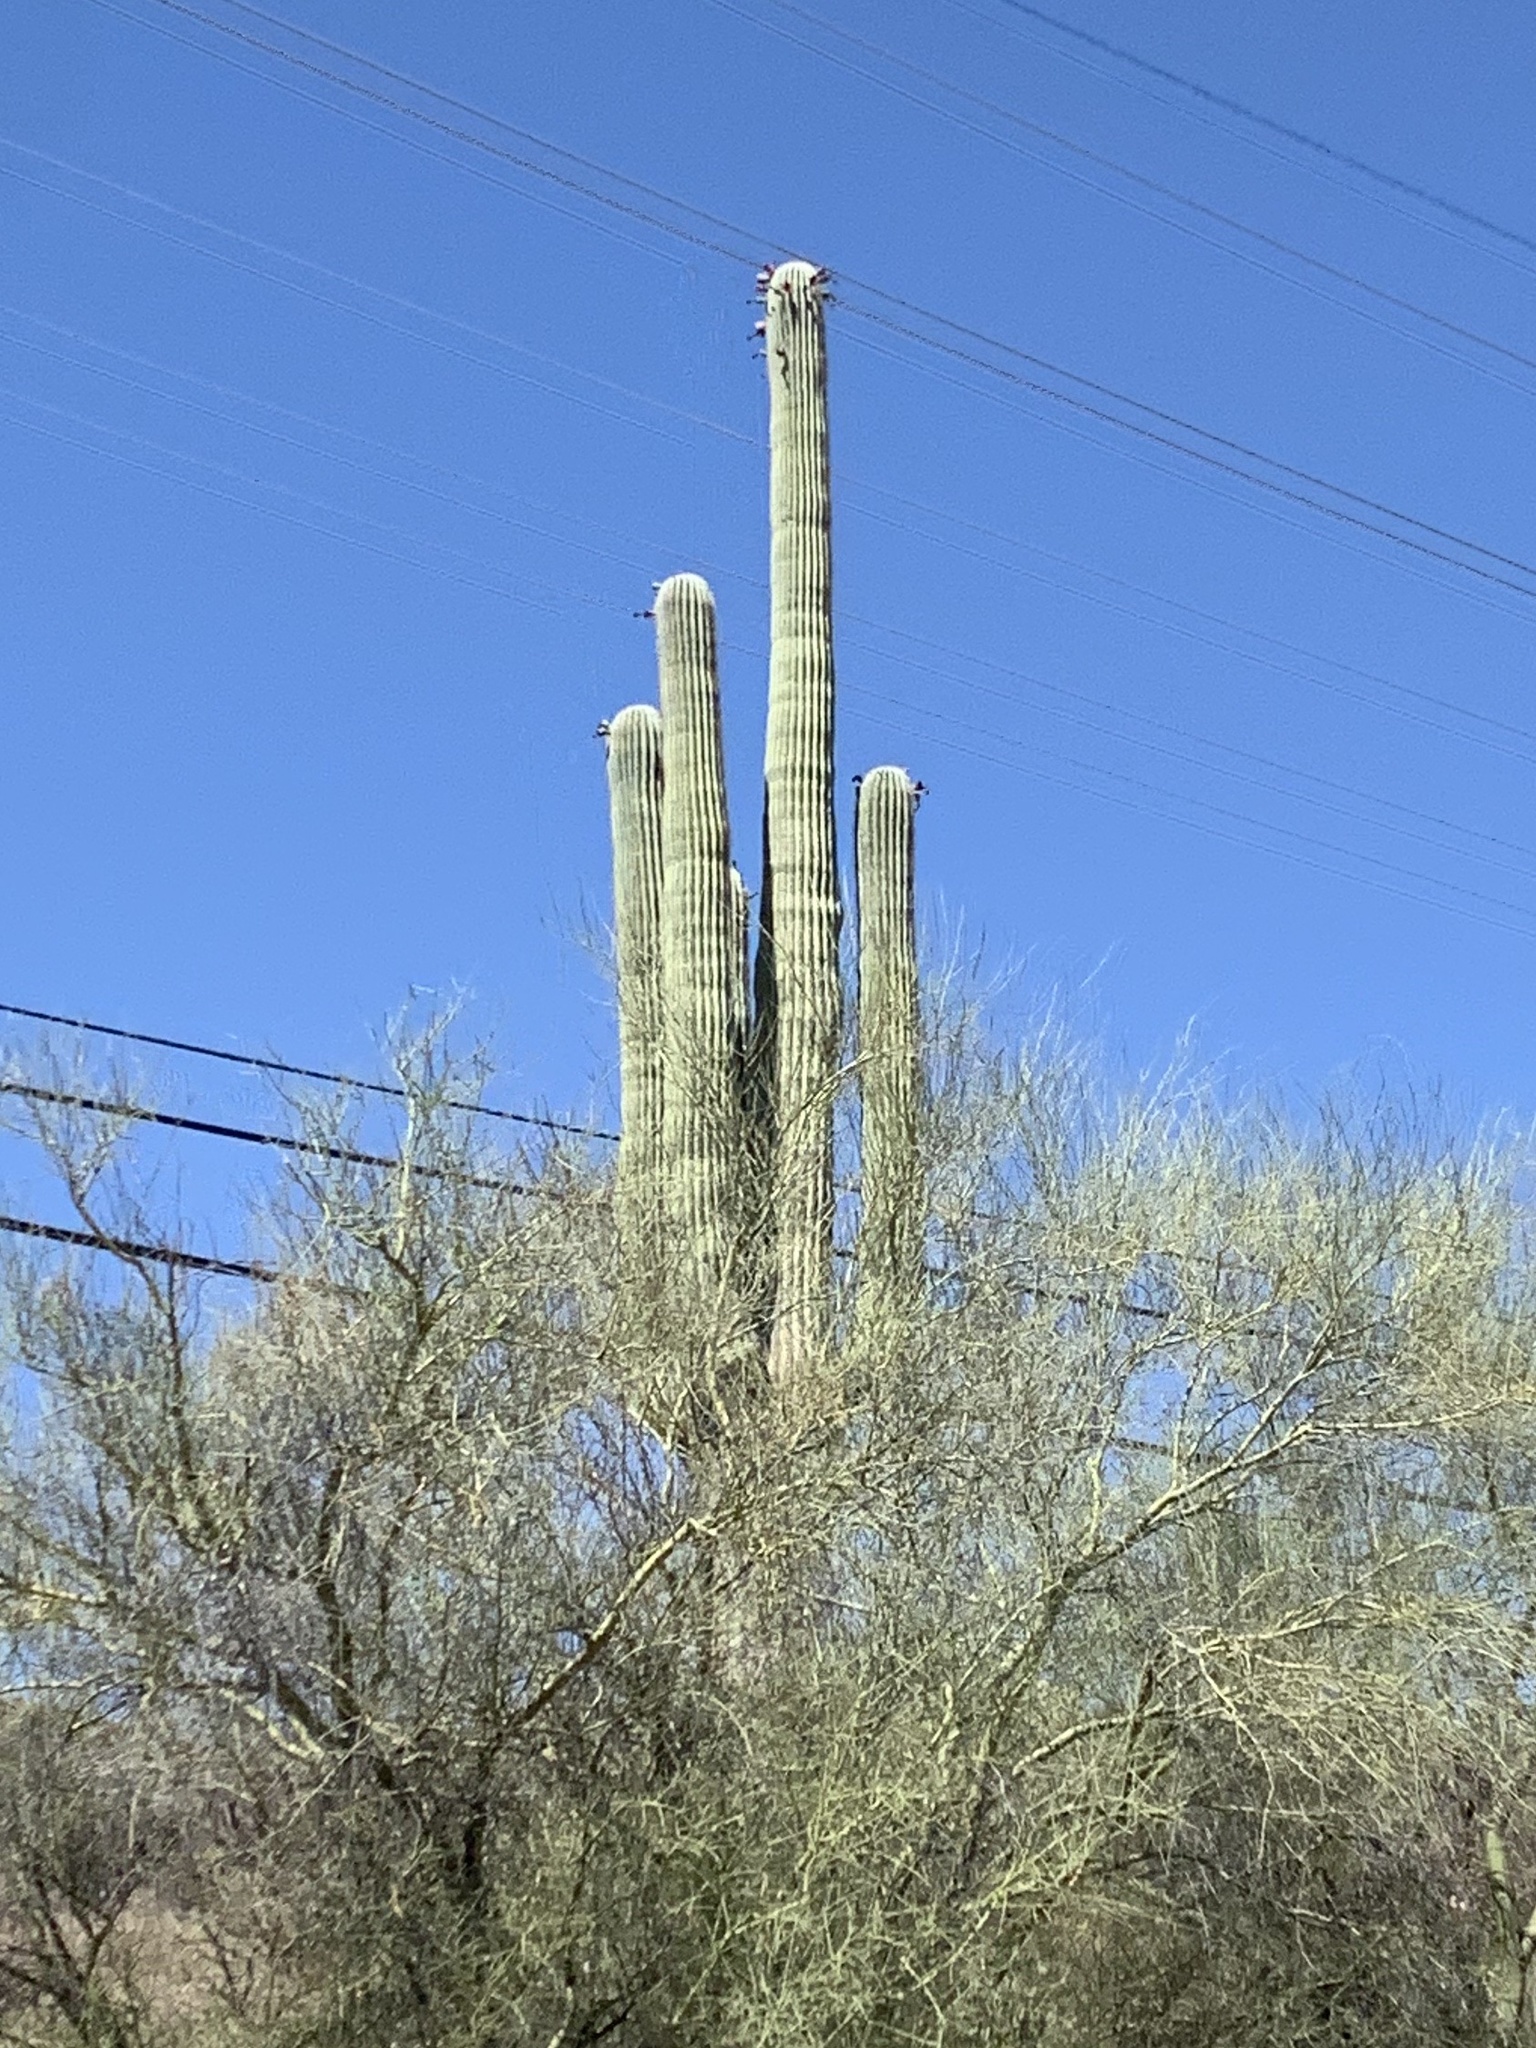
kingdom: Plantae
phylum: Tracheophyta
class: Magnoliopsida
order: Caryophyllales
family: Cactaceae
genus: Carnegiea
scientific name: Carnegiea gigantea
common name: Saguaro
